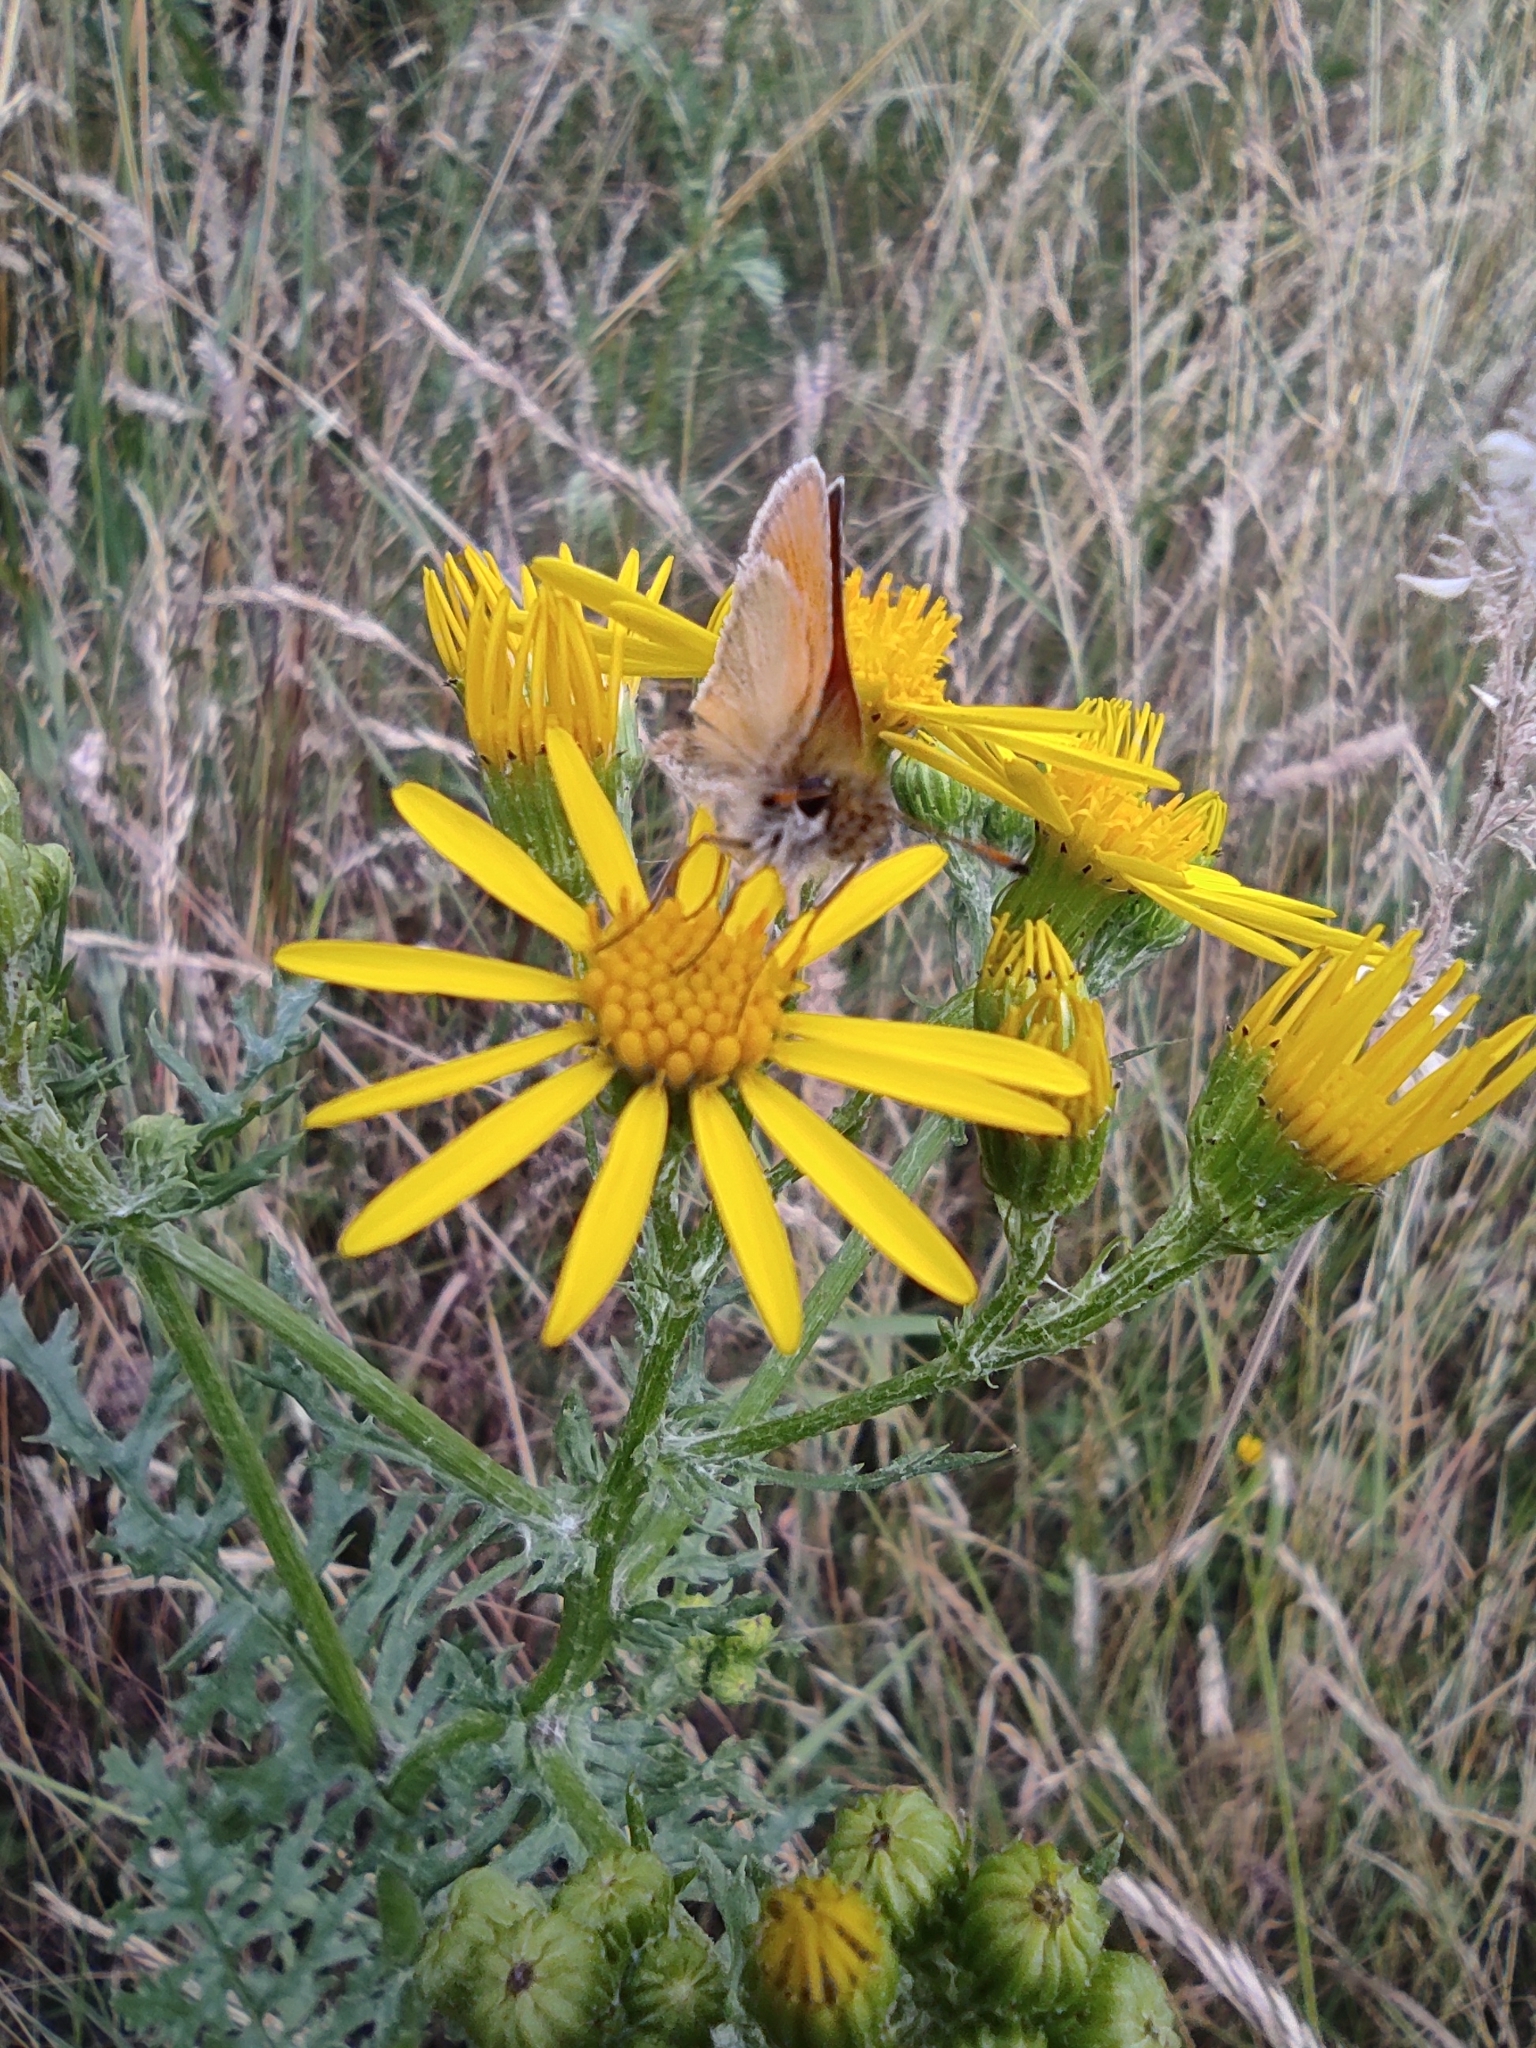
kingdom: Animalia
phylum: Arthropoda
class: Insecta
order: Lepidoptera
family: Hesperiidae
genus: Thymelicus
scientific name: Thymelicus lineola
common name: Essex skipper
